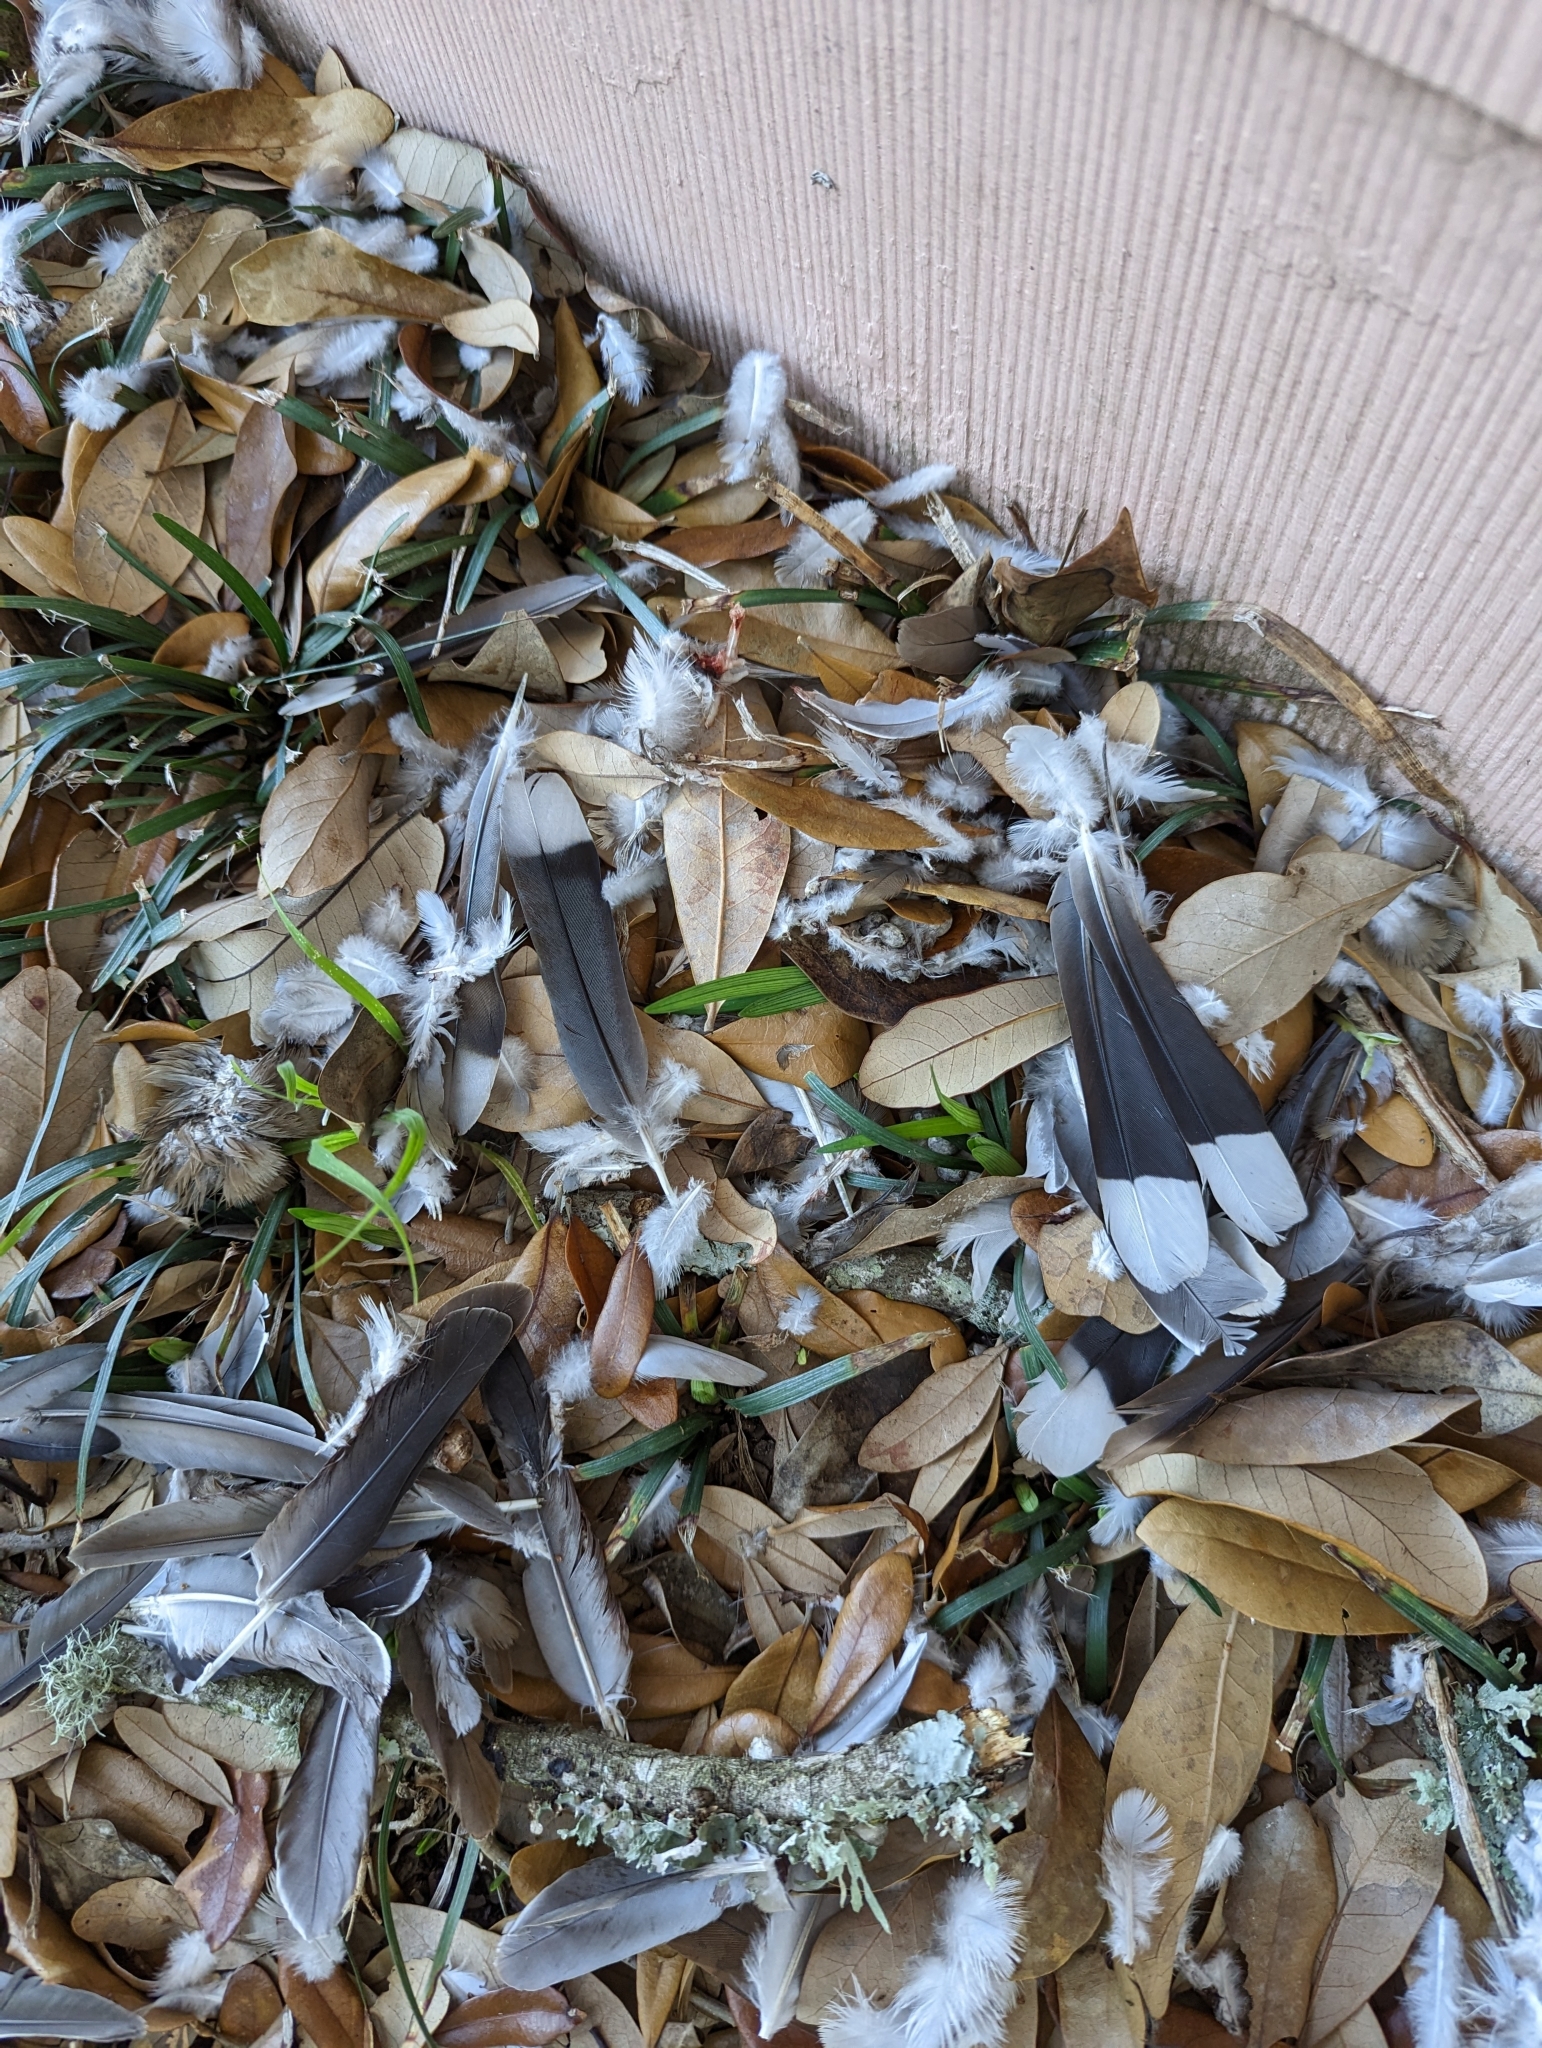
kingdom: Animalia
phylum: Chordata
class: Aves
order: Columbiformes
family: Columbidae
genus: Zenaida
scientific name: Zenaida asiatica
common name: White-winged dove
